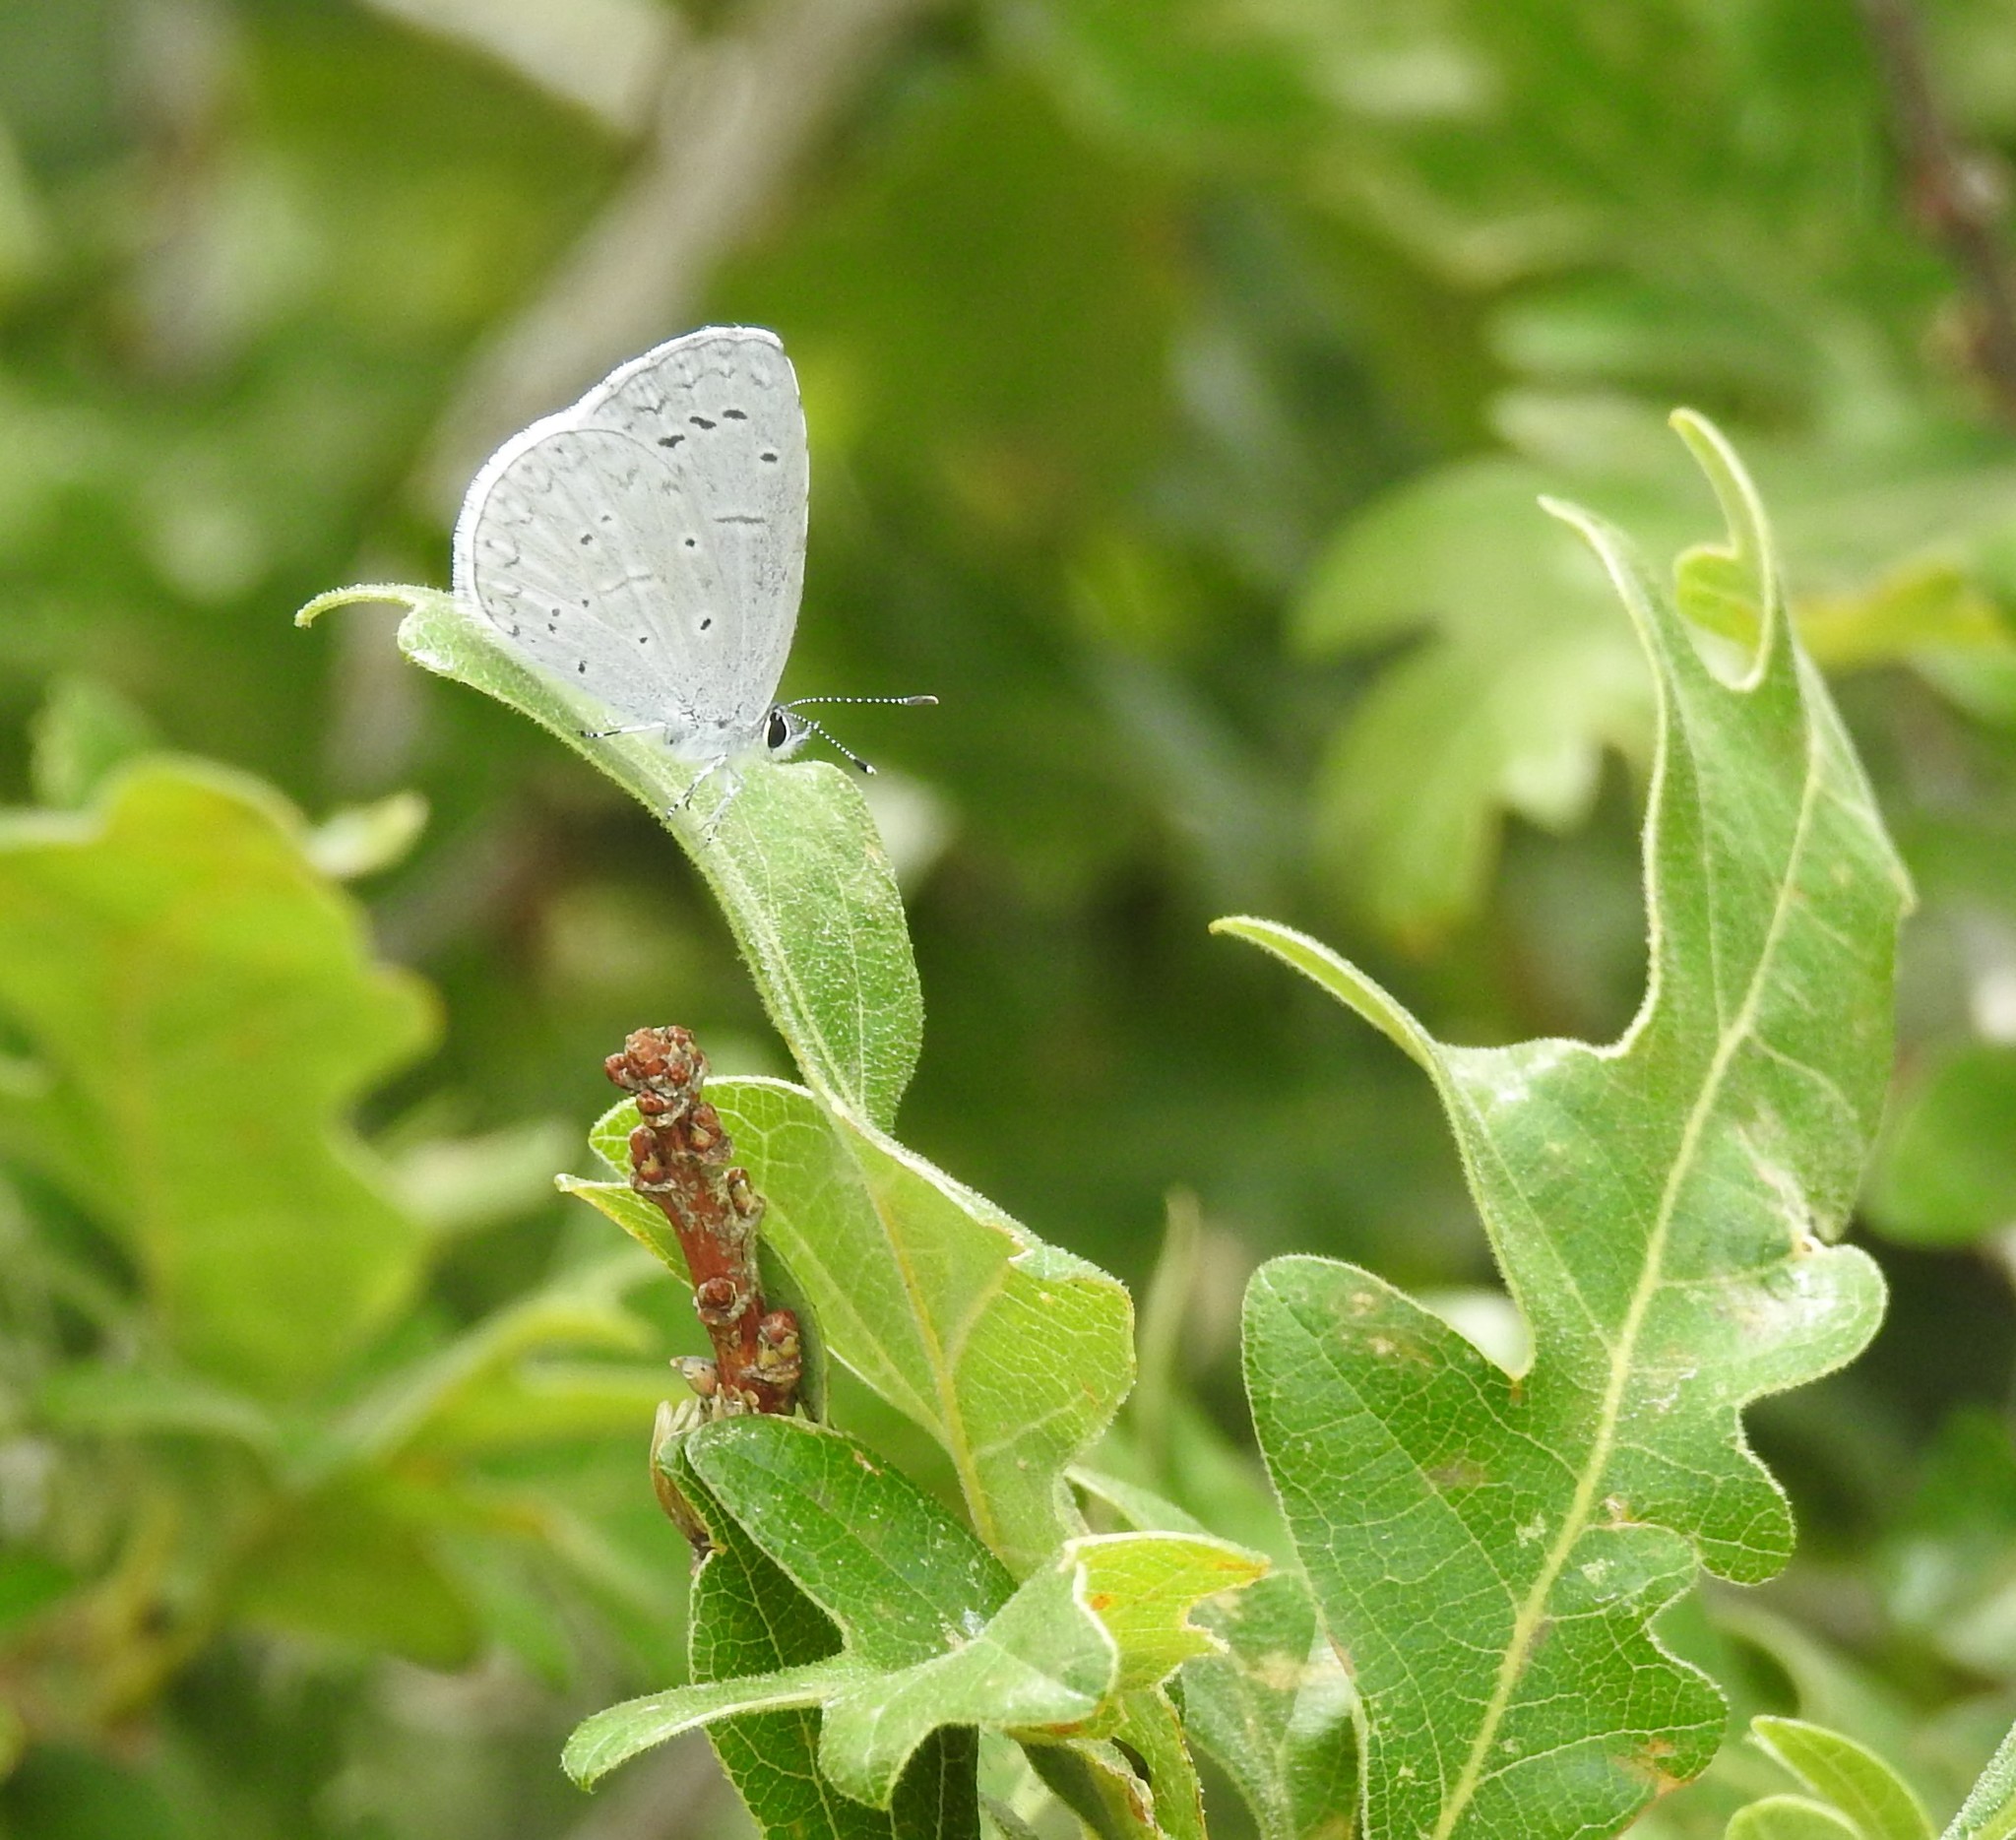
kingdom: Animalia
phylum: Arthropoda
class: Insecta
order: Lepidoptera
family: Lycaenidae
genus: Celastrina
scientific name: Celastrina ladon
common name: Spring azure
